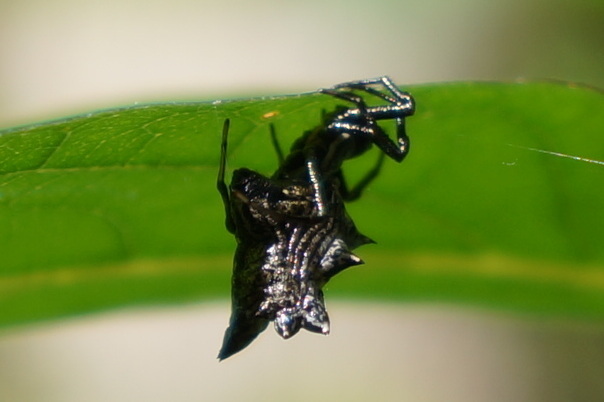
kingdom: Animalia
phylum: Arthropoda
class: Arachnida
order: Araneae
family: Araneidae
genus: Micrathena
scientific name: Micrathena gracilis
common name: Orb weavers
